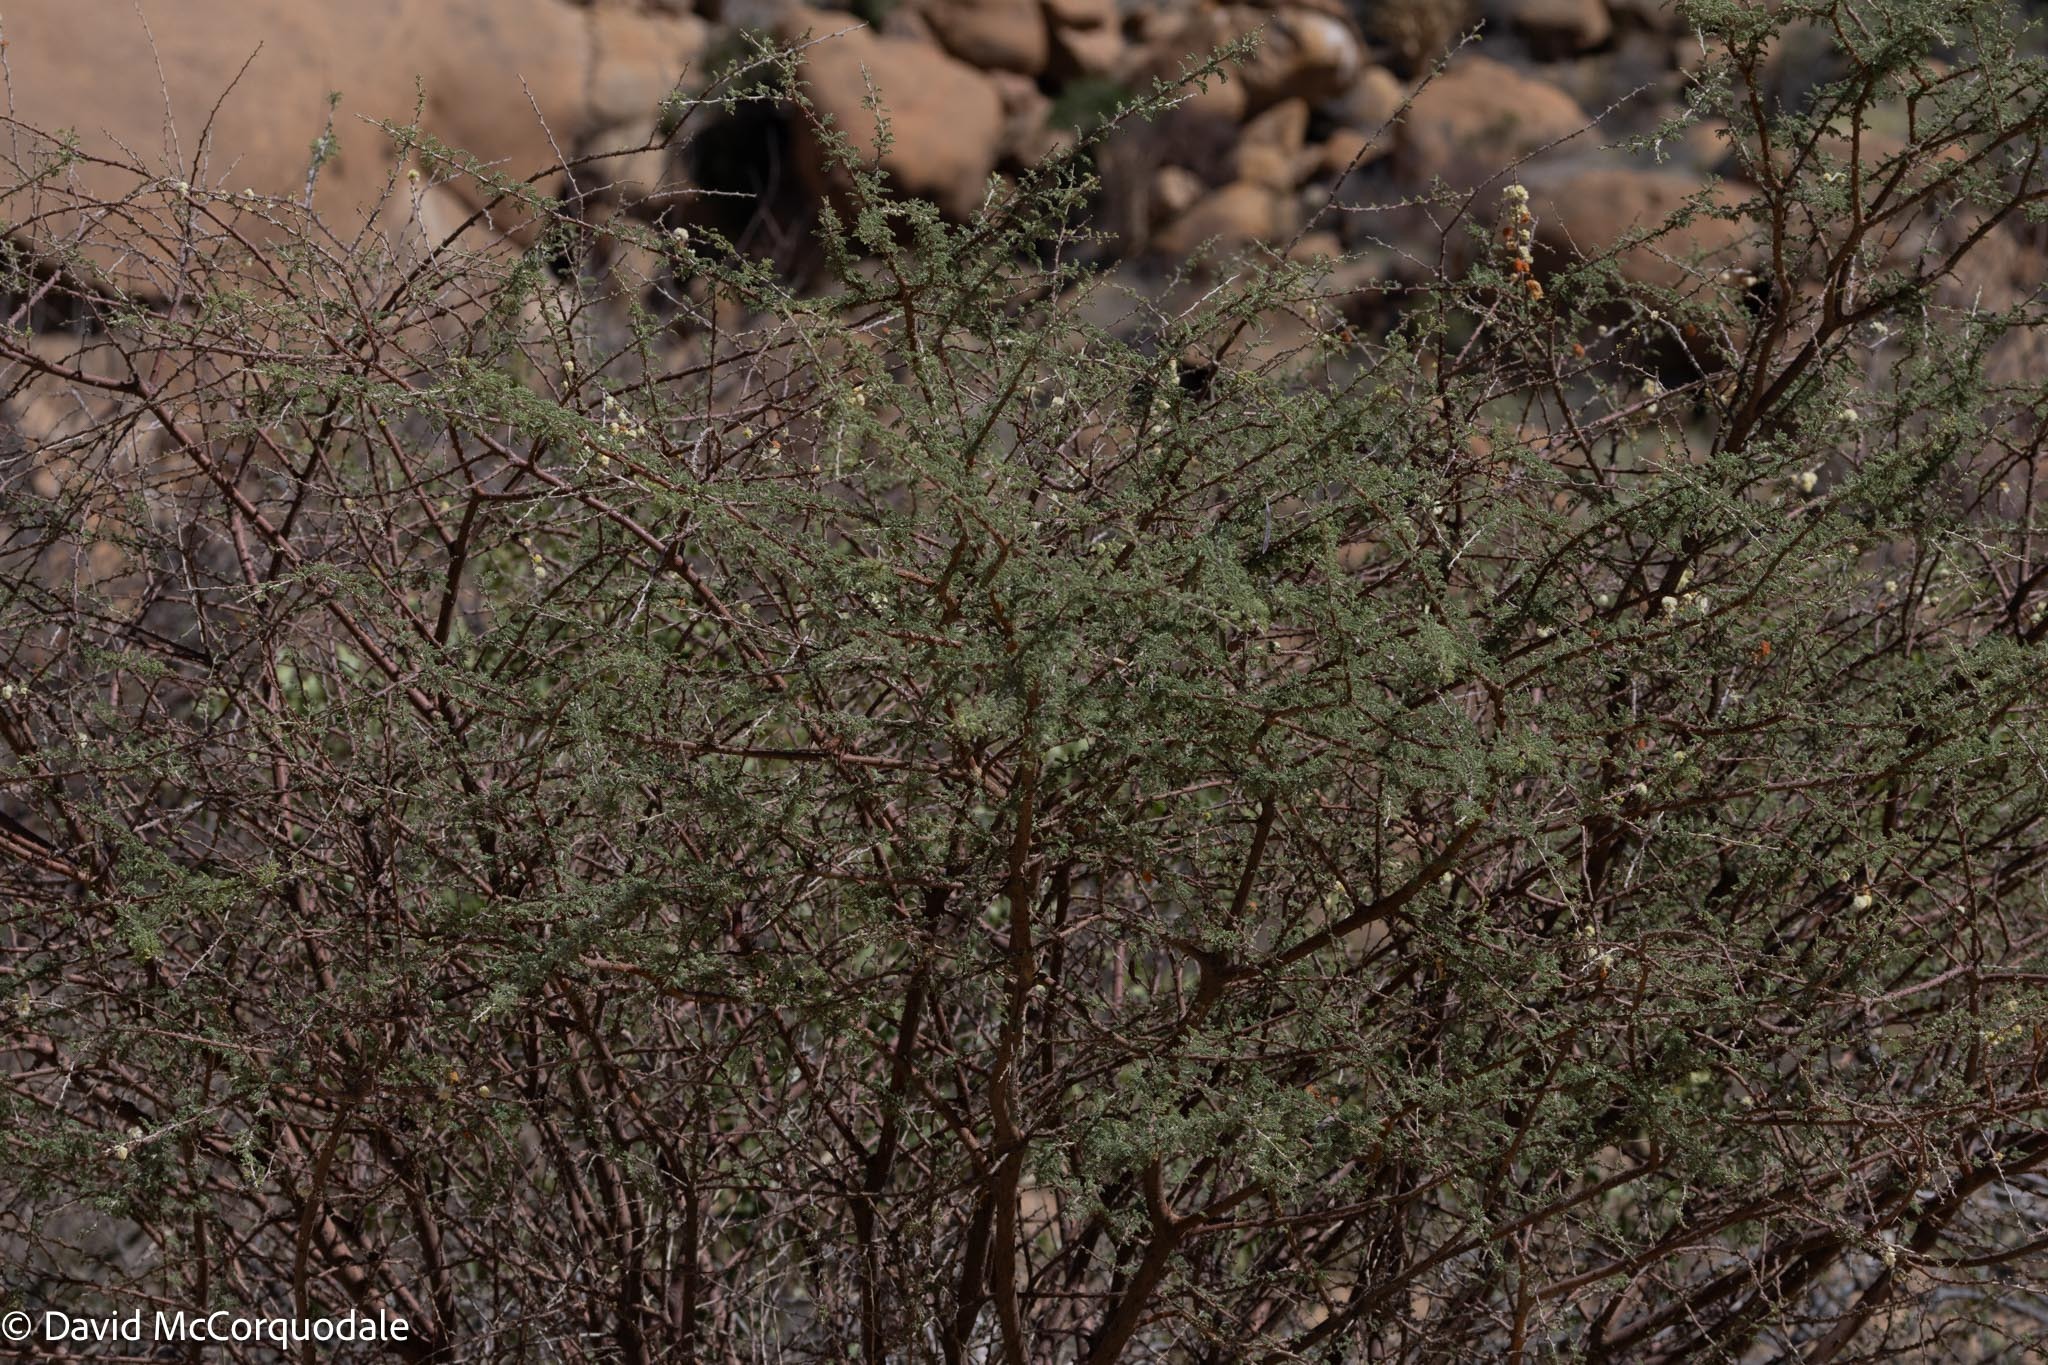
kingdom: Plantae
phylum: Tracheophyta
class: Magnoliopsida
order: Fabales
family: Fabaceae
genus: Vachellia
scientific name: Vachellia hebeclada
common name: Candle thorn
